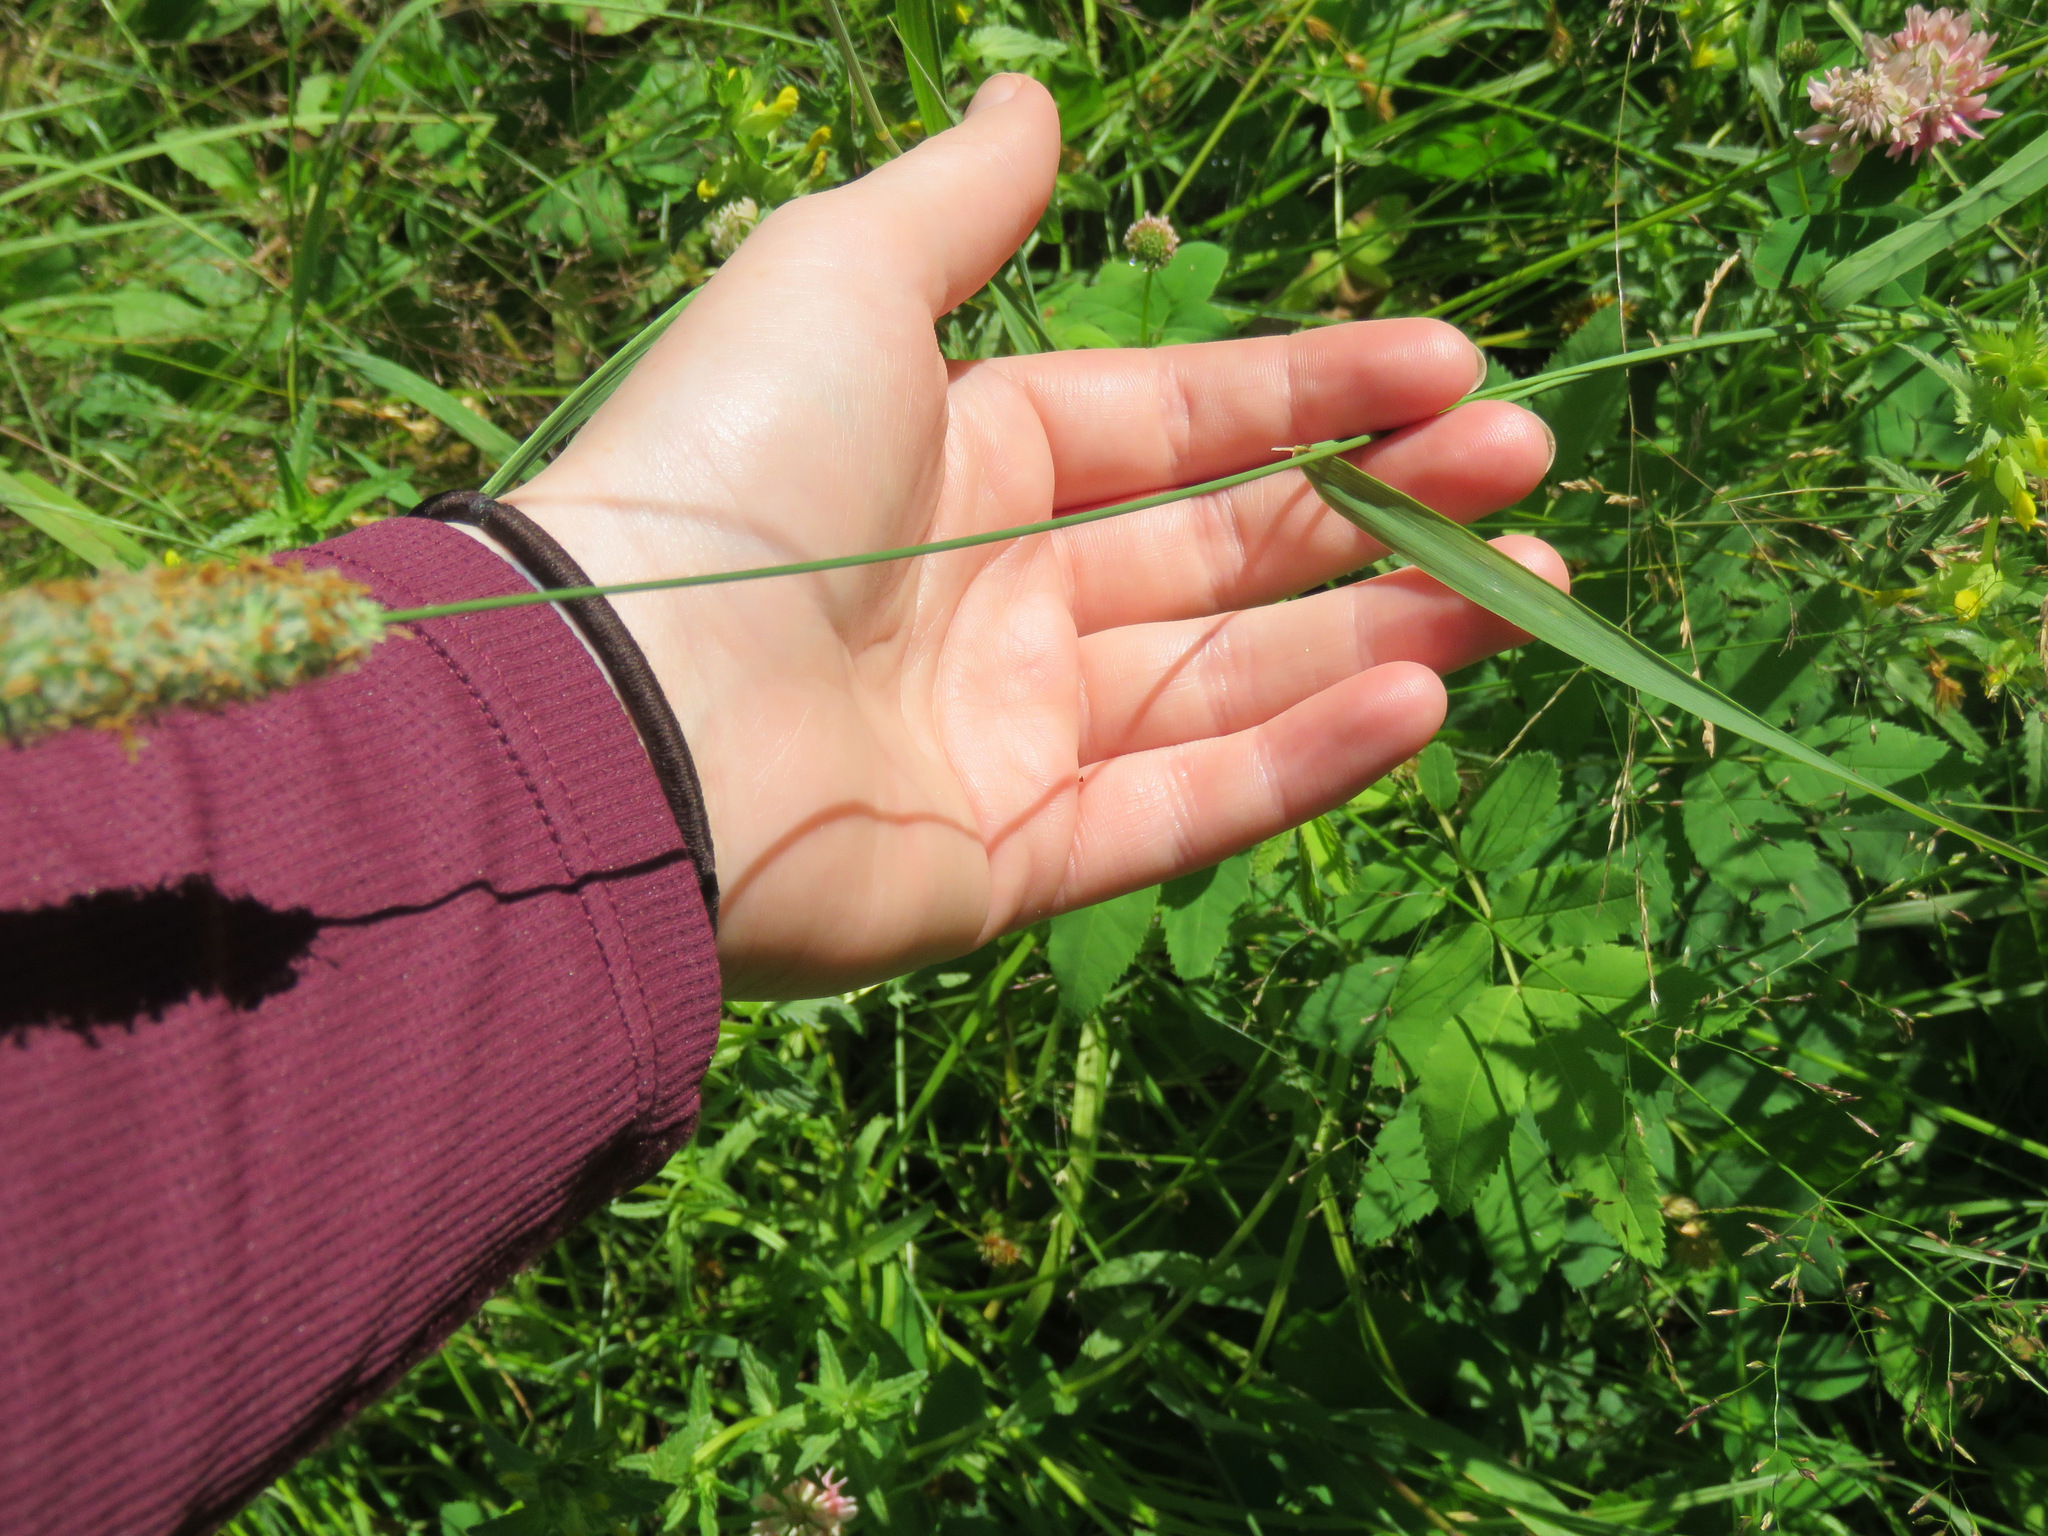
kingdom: Plantae
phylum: Tracheophyta
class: Liliopsida
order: Poales
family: Poaceae
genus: Phleum
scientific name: Phleum pratense
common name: Timothy grass
